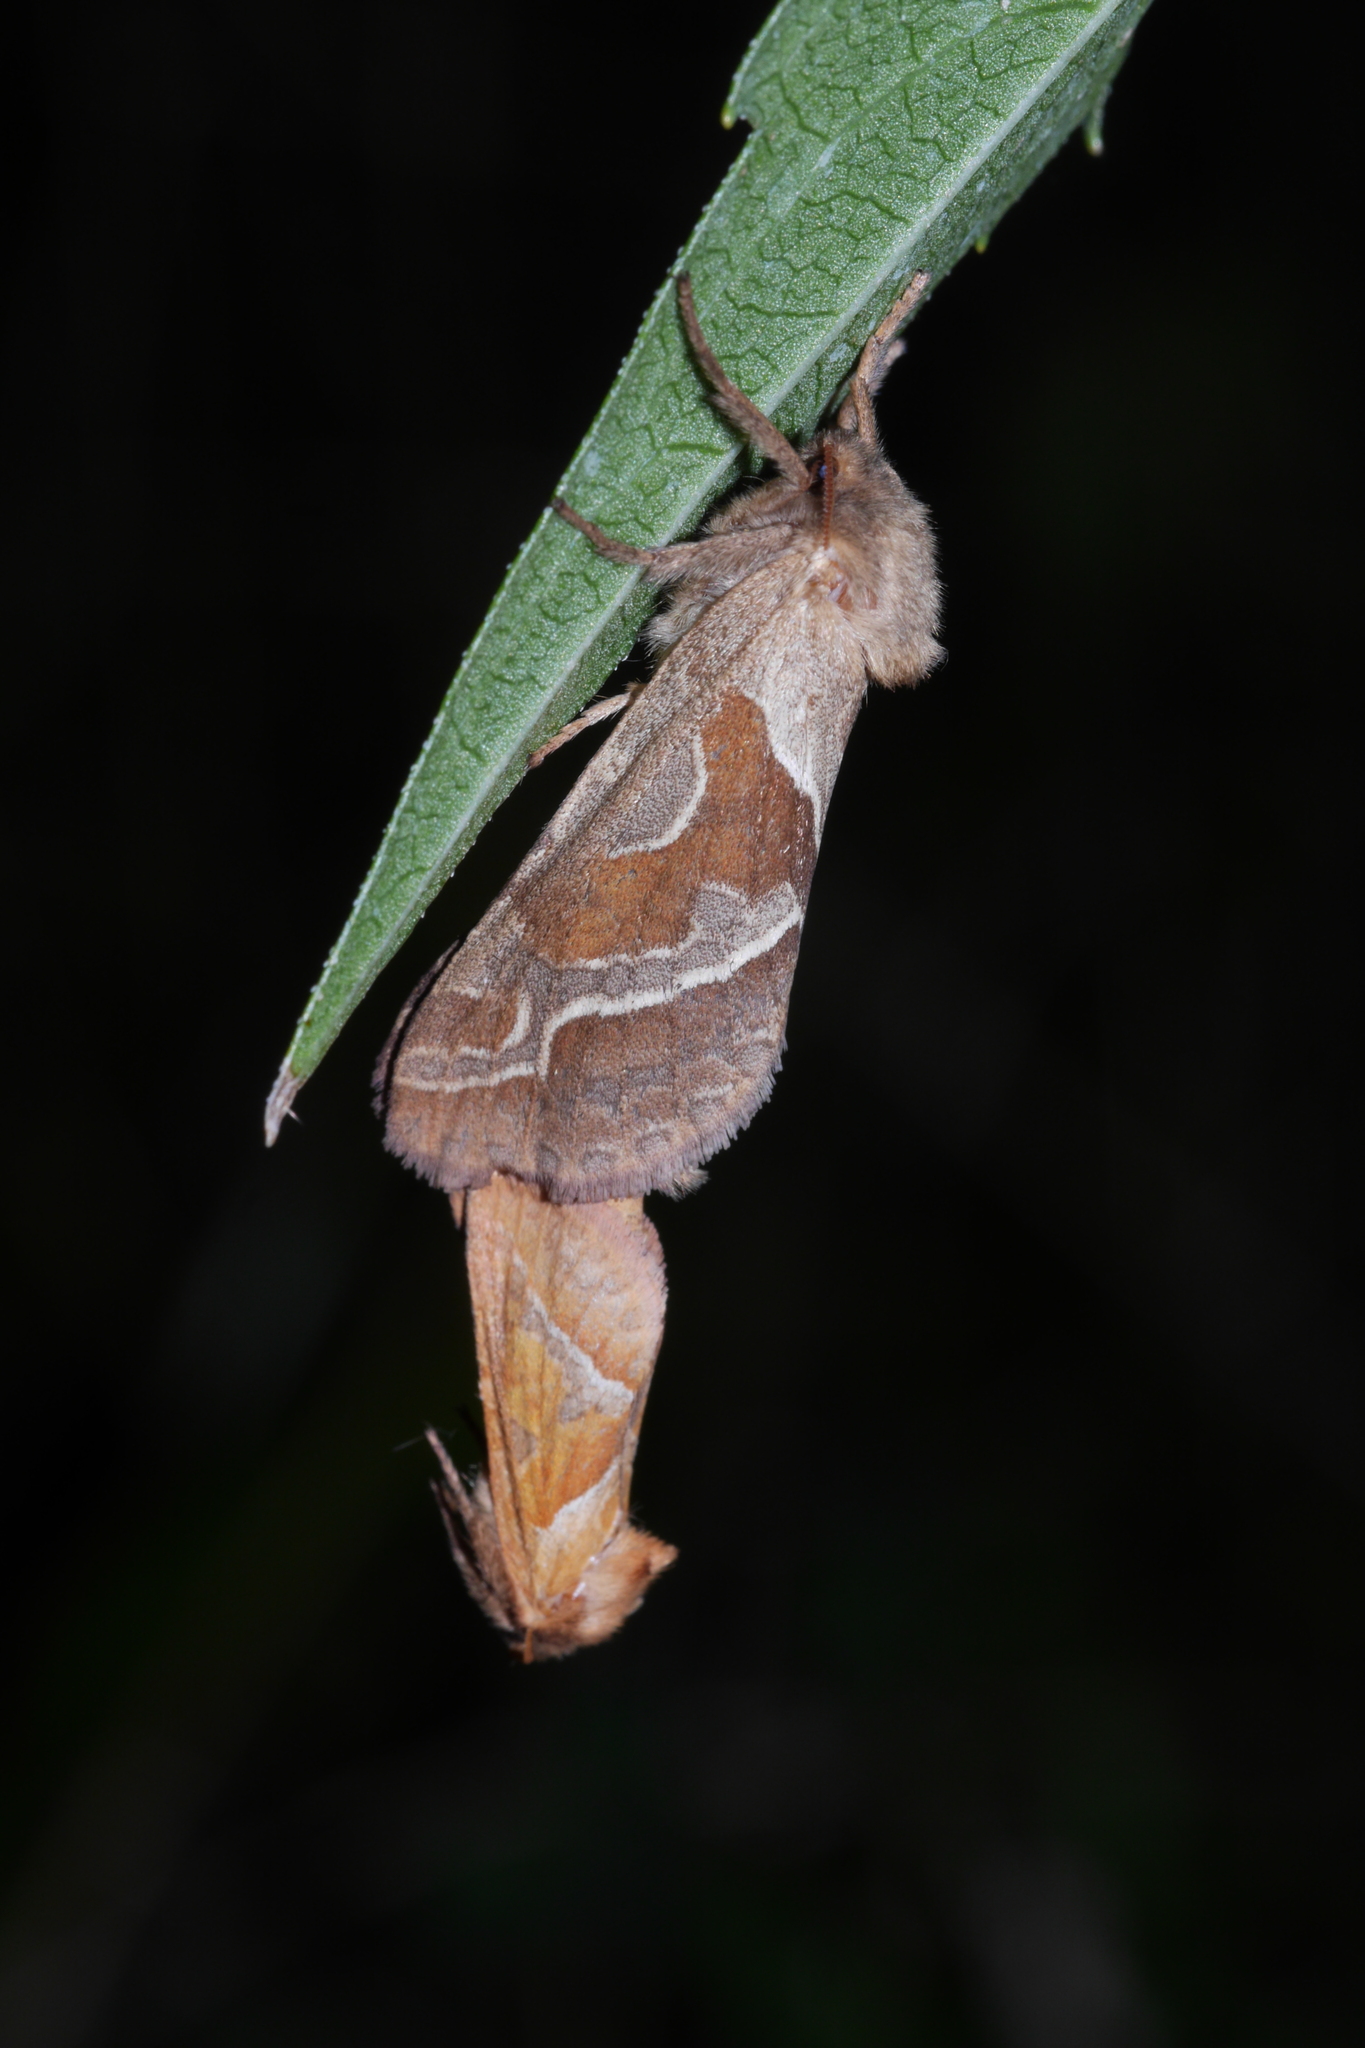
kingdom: Animalia
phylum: Arthropoda
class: Insecta
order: Lepidoptera
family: Hepialidae
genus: Triodia
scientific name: Triodia sylvina
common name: Orange swift
